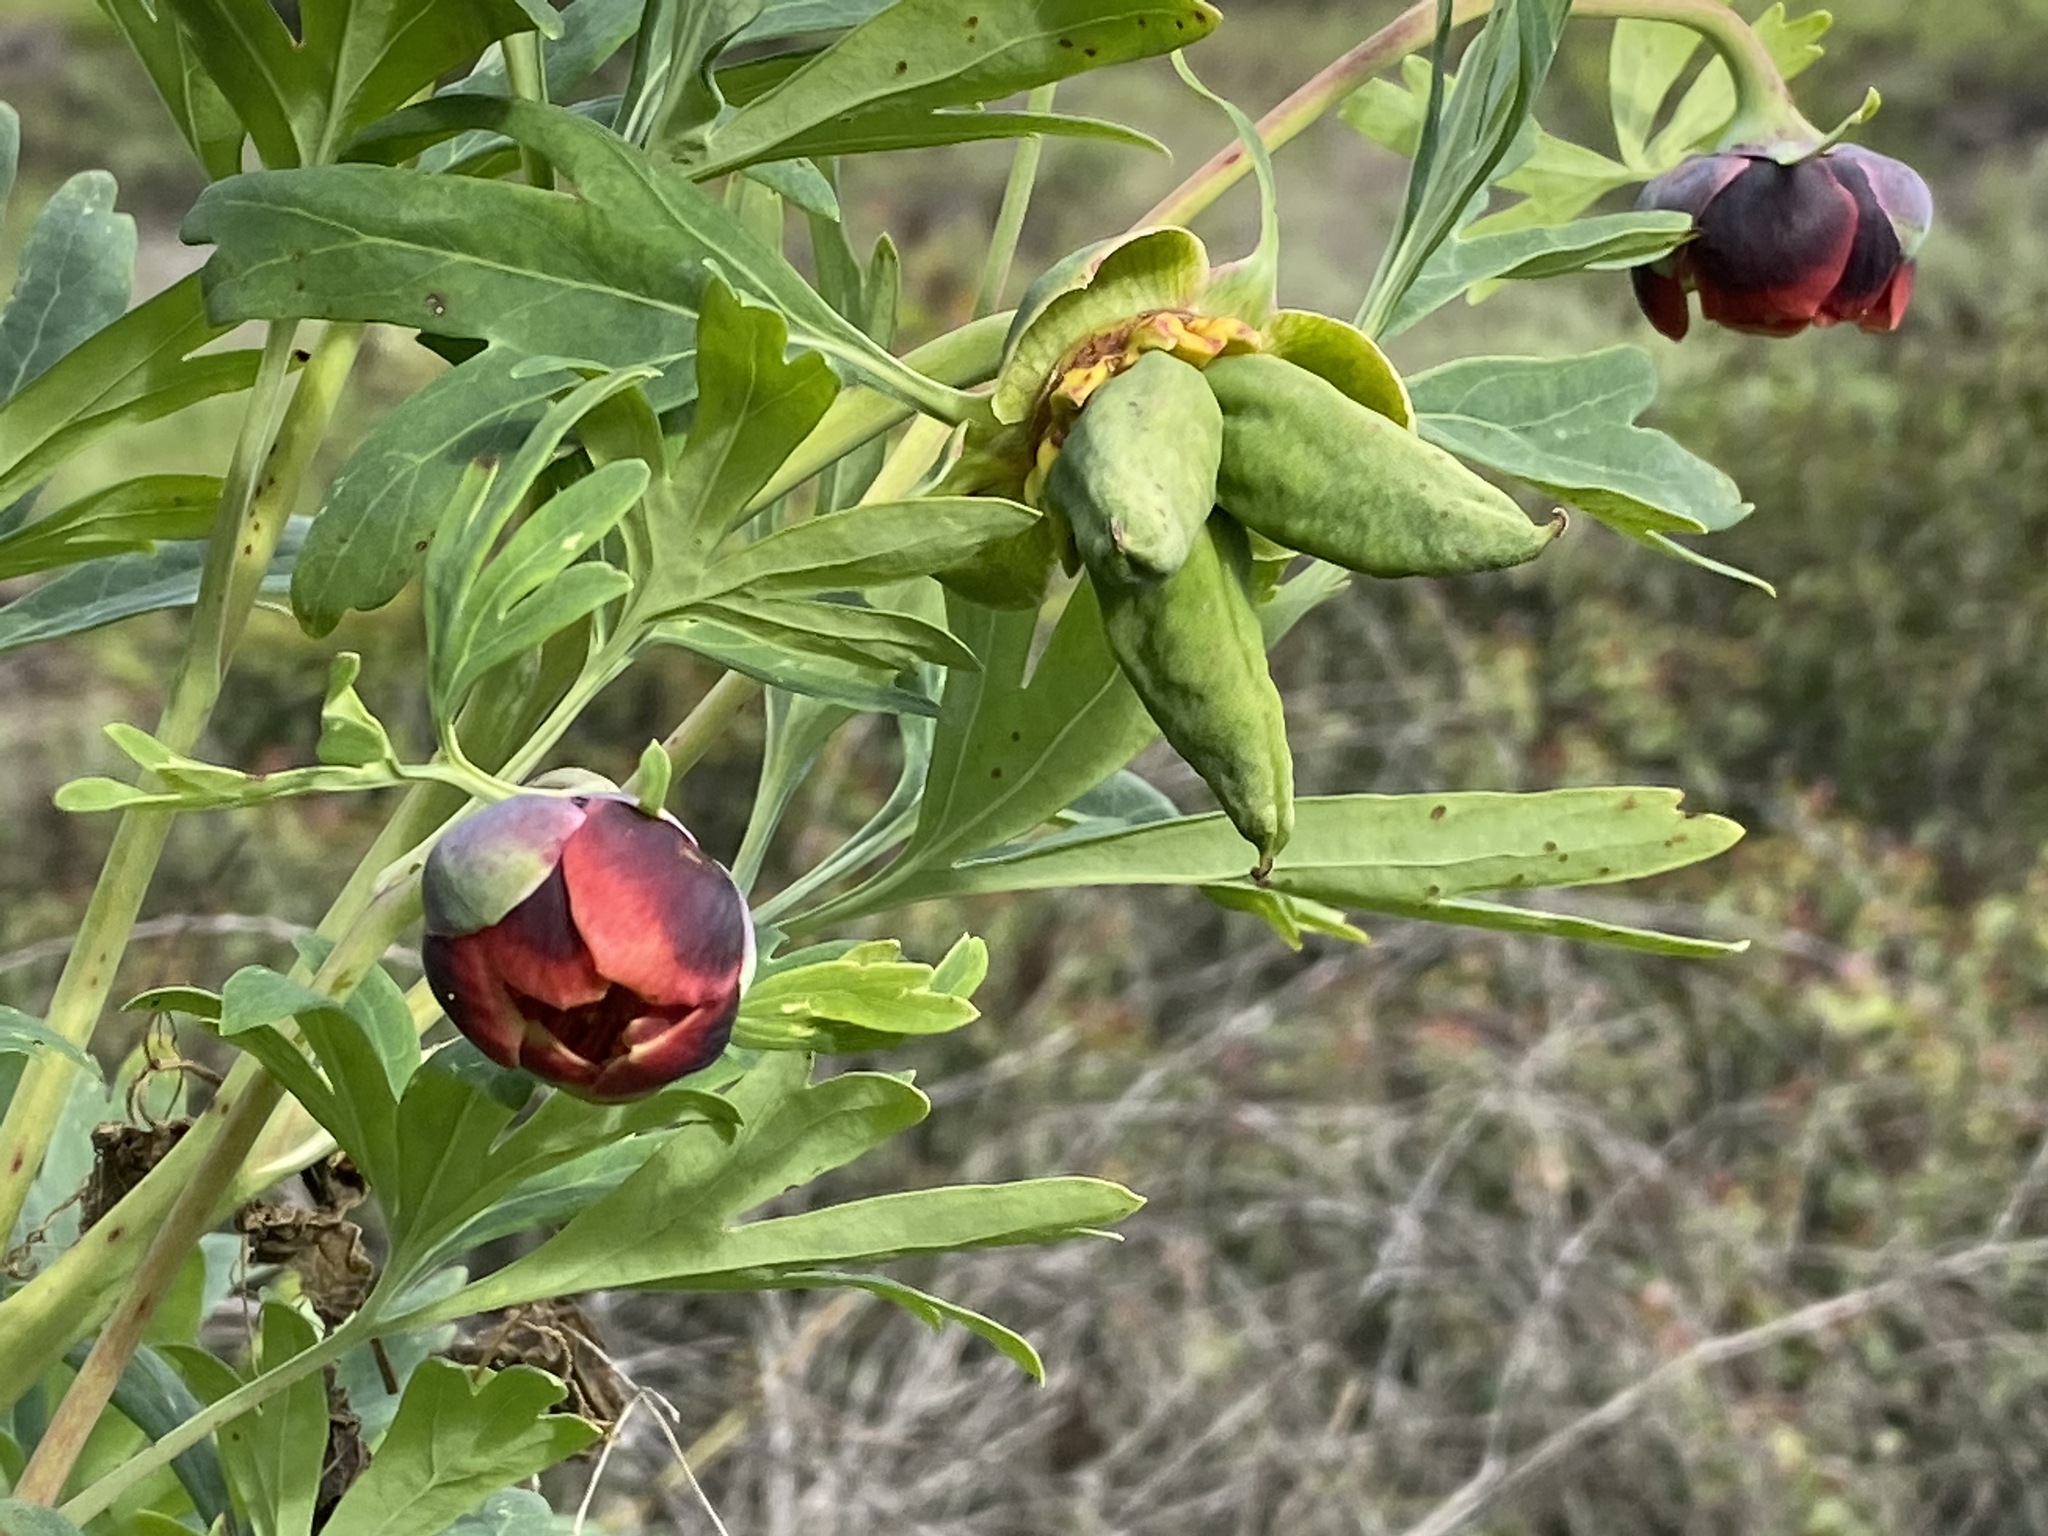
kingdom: Plantae
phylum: Tracheophyta
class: Magnoliopsida
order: Saxifragales
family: Paeoniaceae
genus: Paeonia
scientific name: Paeonia californica
